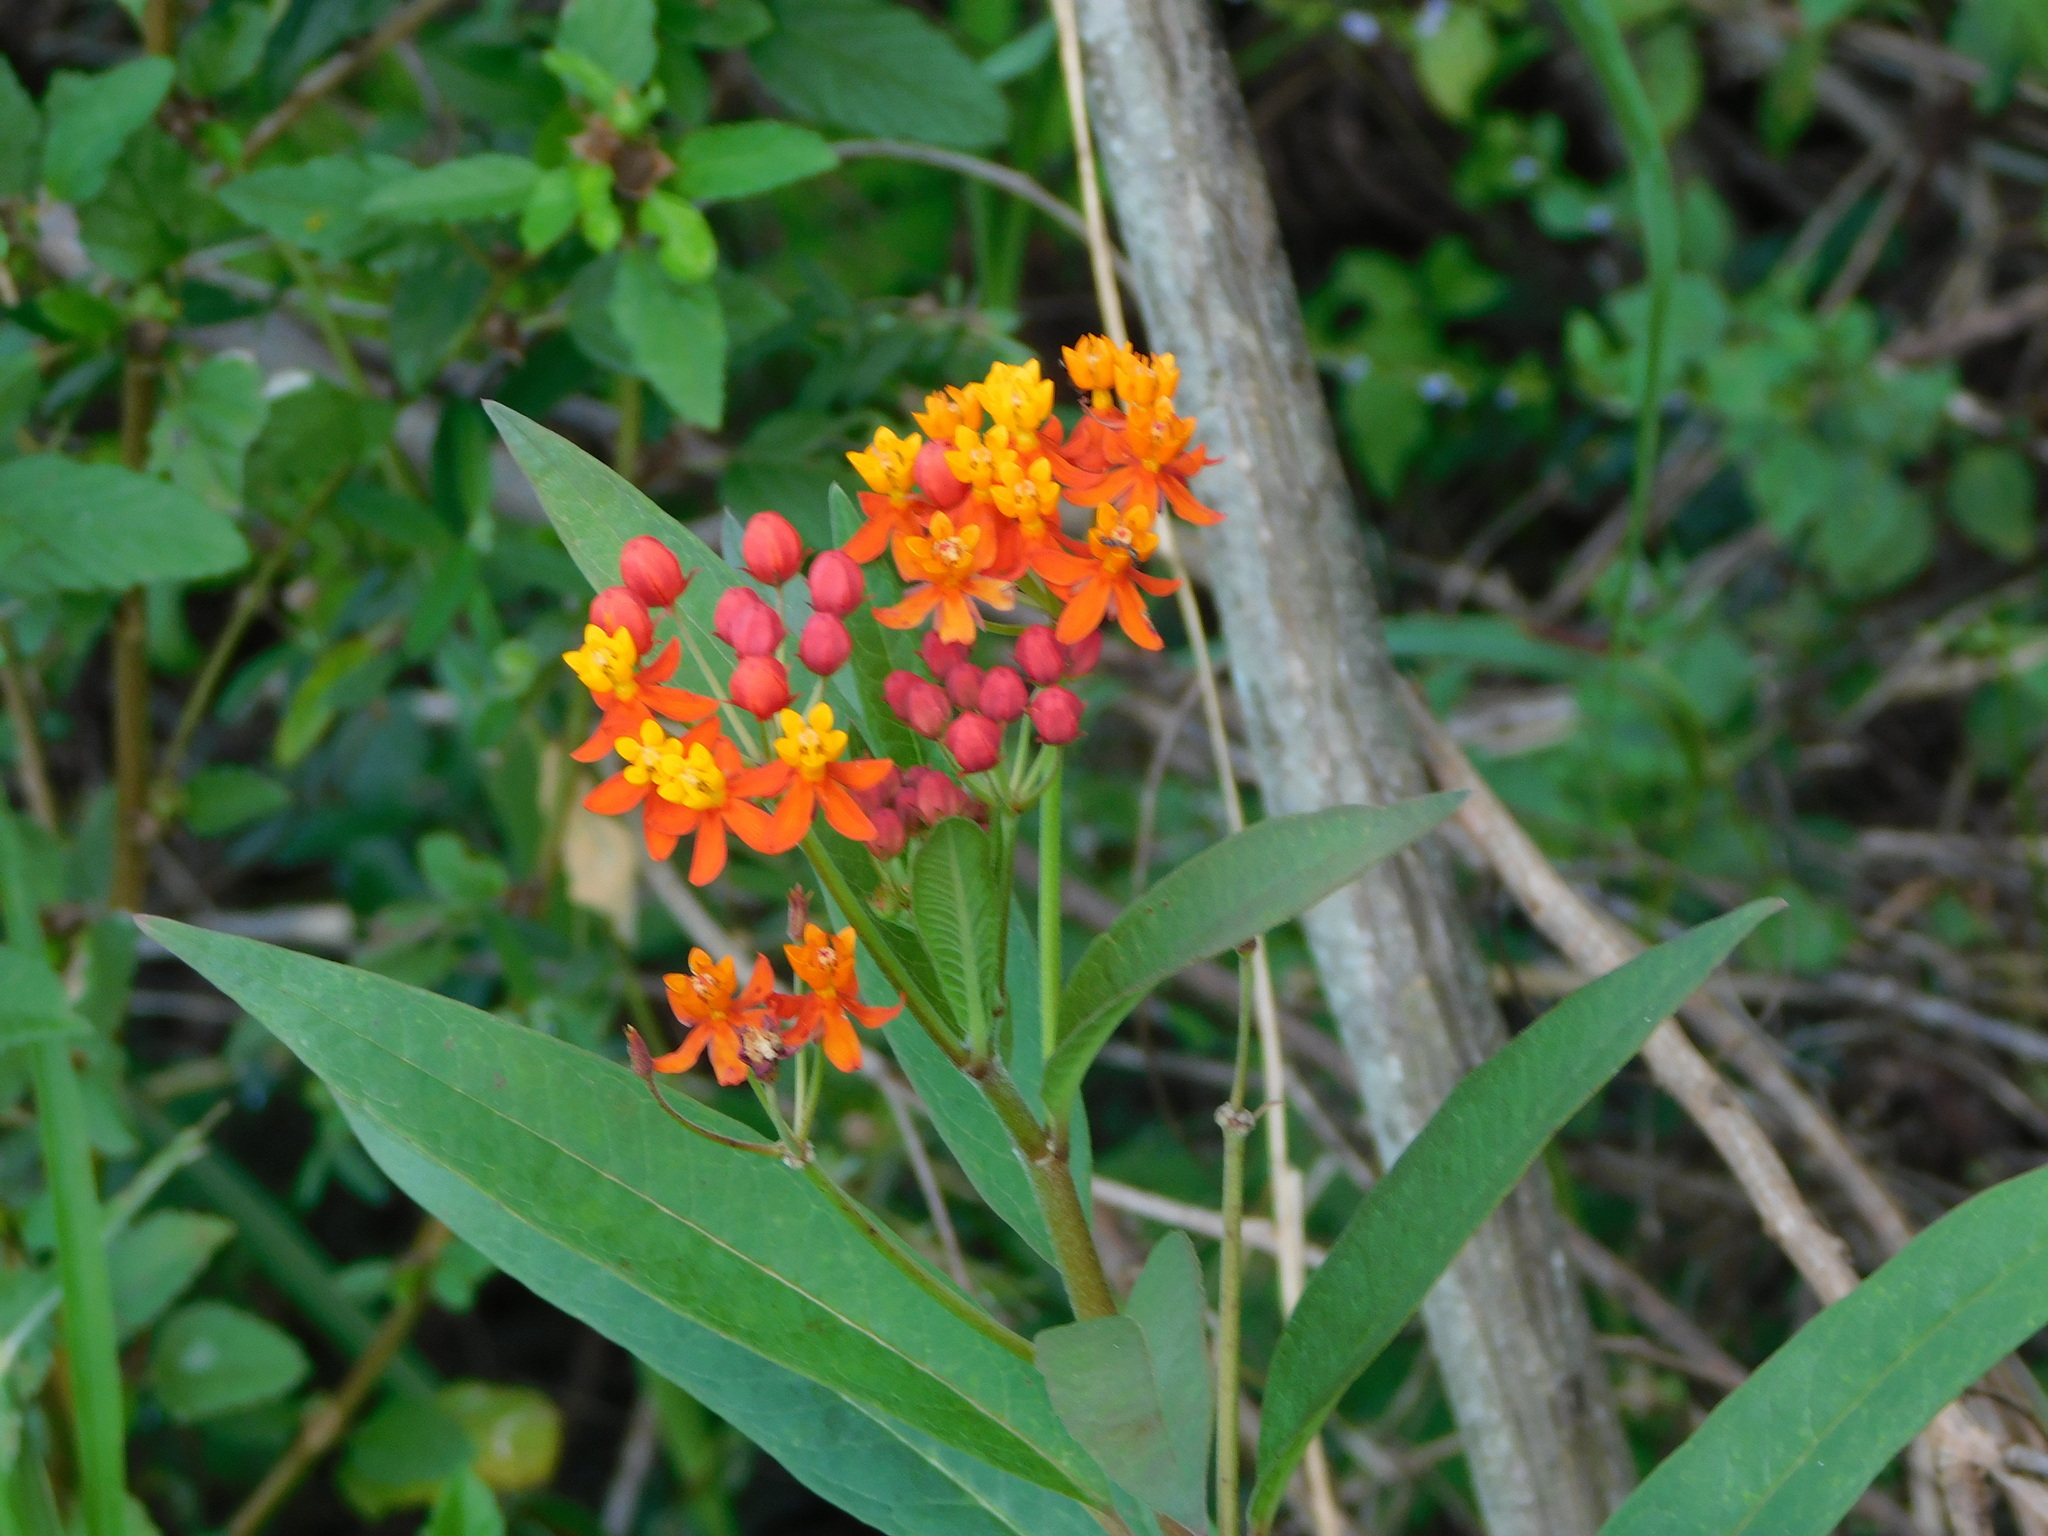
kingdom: Plantae
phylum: Tracheophyta
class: Magnoliopsida
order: Gentianales
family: Apocynaceae
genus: Asclepias
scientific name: Asclepias curassavica
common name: Bloodflower
